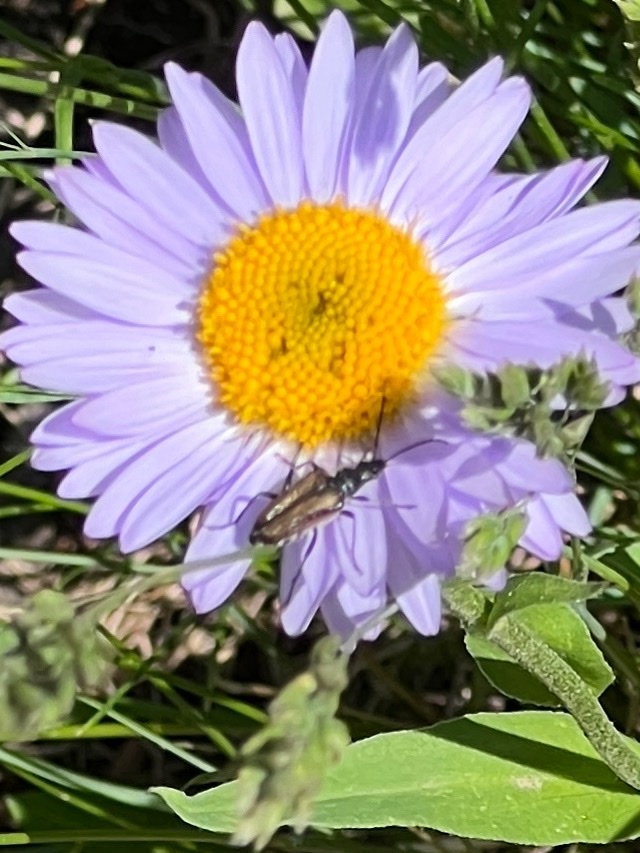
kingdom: Animalia
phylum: Arthropoda
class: Insecta
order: Coleoptera
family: Cerambycidae
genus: Gnathacmaeops
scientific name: Gnathacmaeops pratensis
